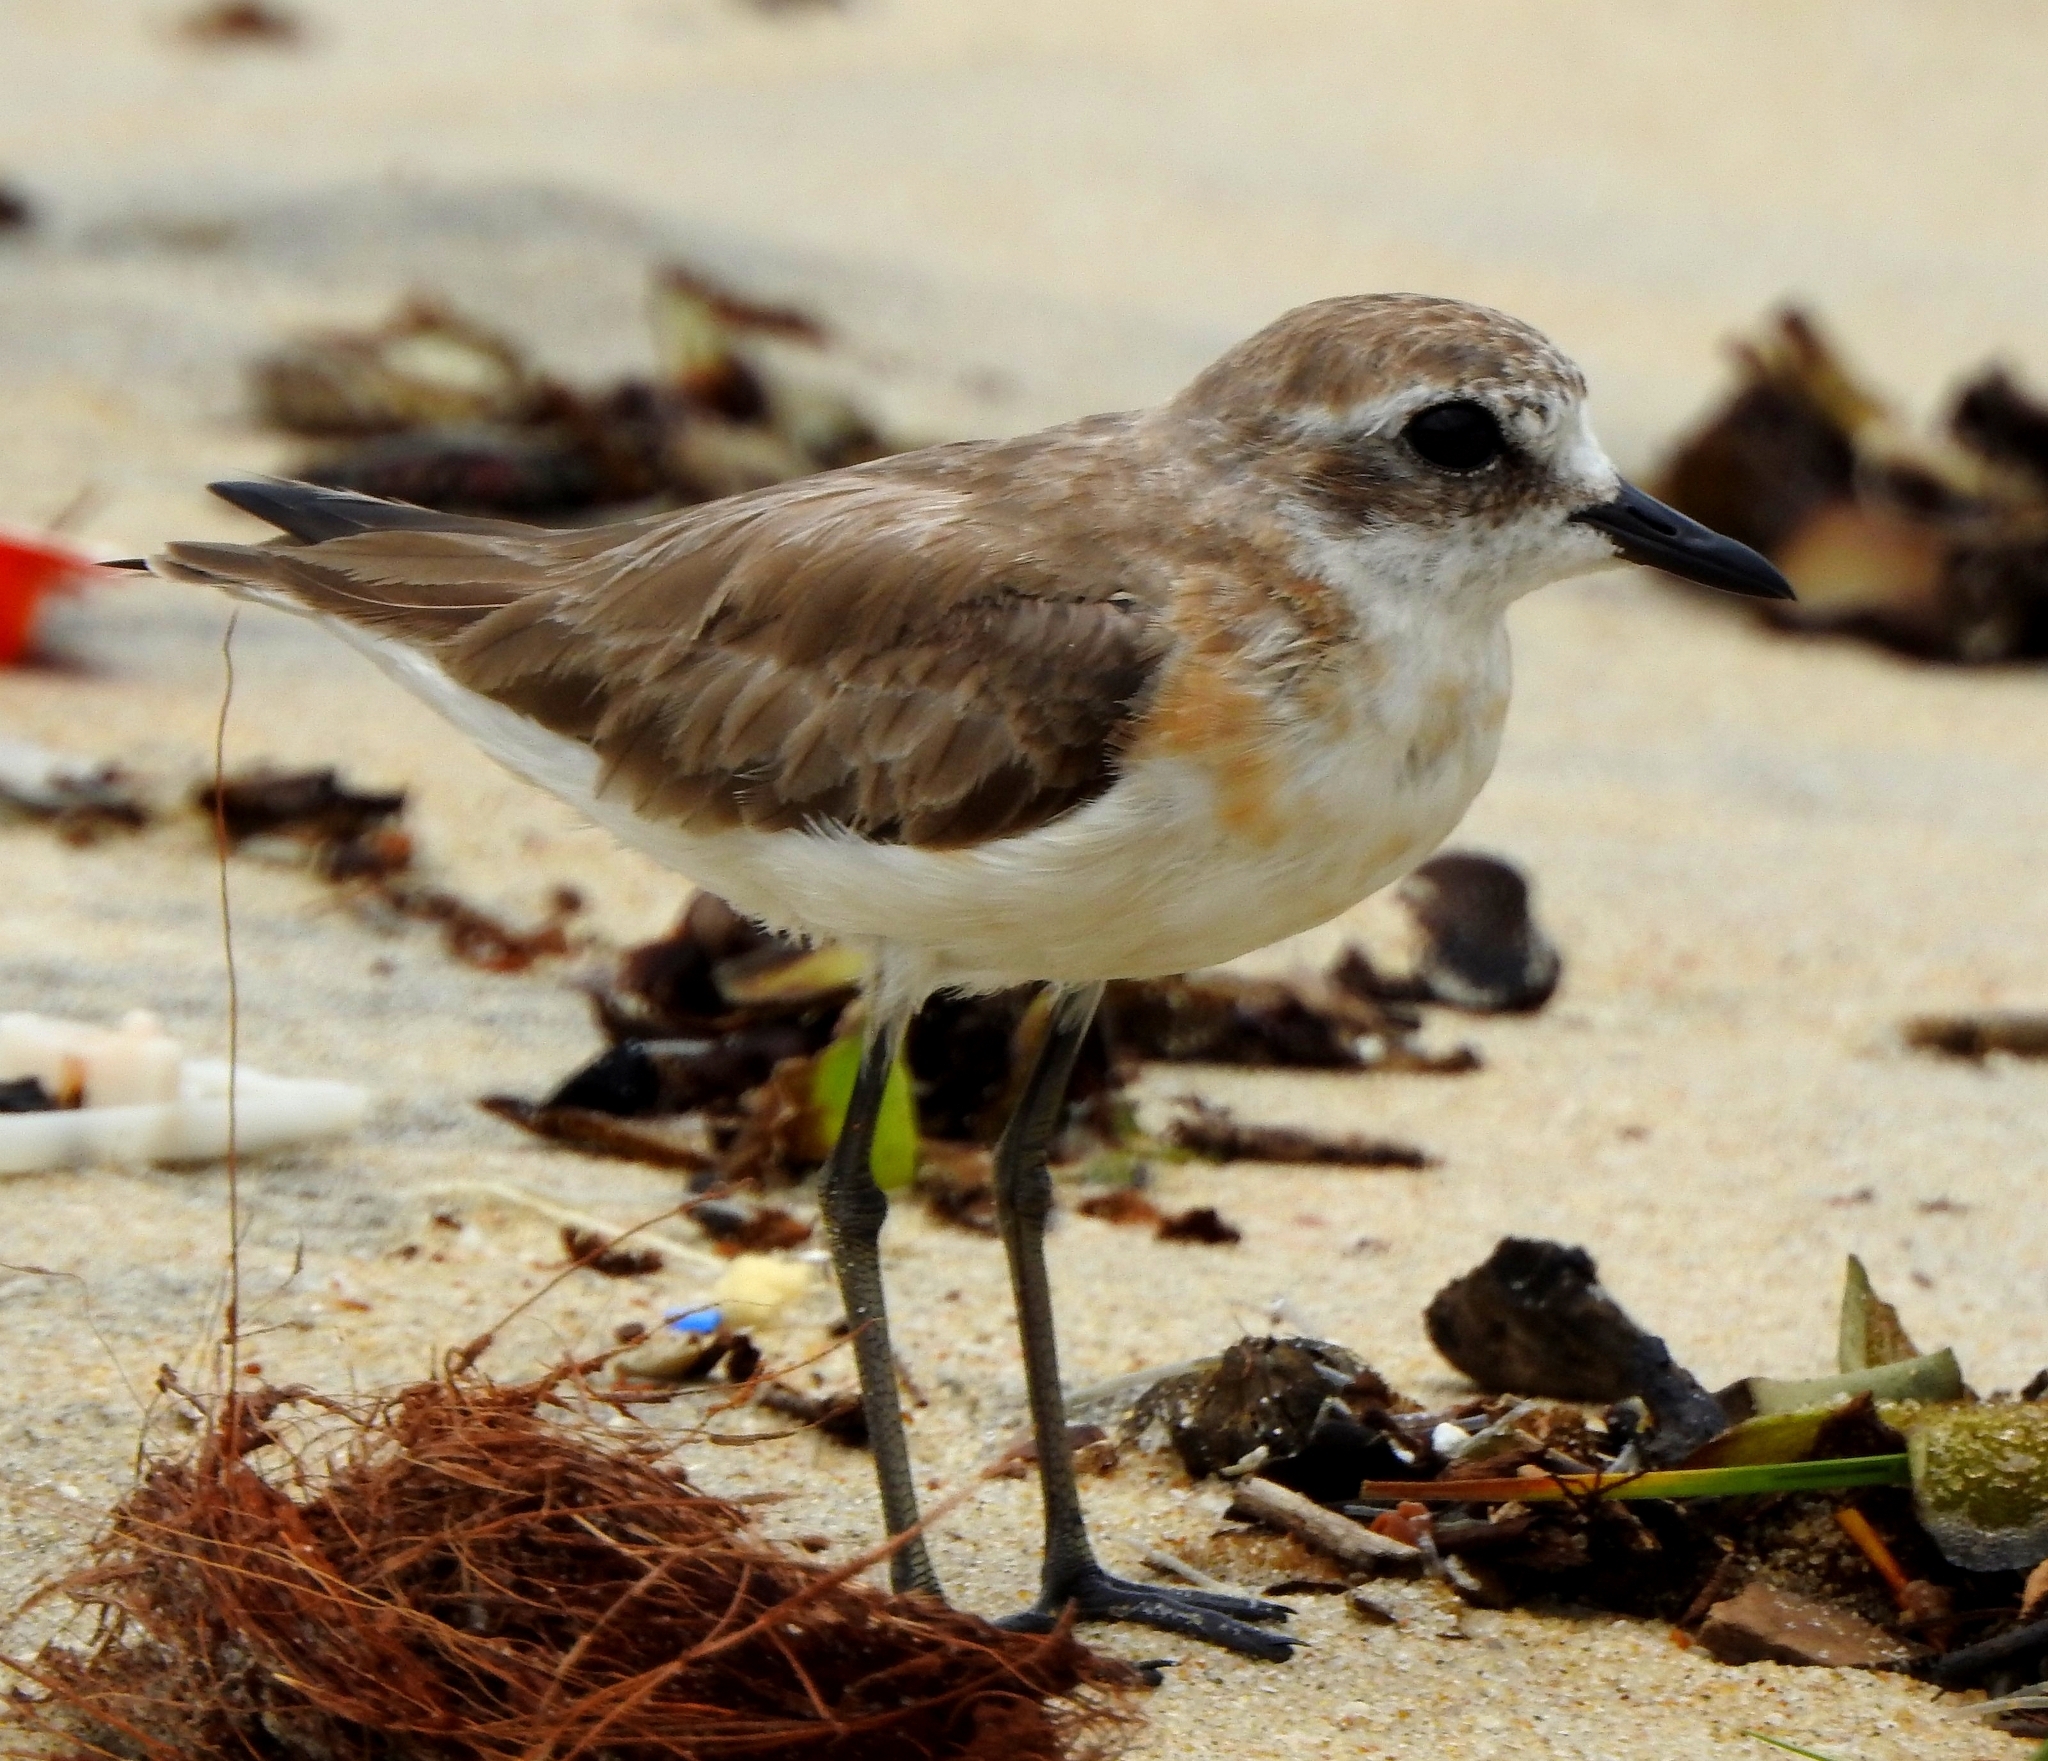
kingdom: Animalia
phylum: Chordata
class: Aves
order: Charadriiformes
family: Charadriidae
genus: Anarhynchus
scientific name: Anarhynchus
